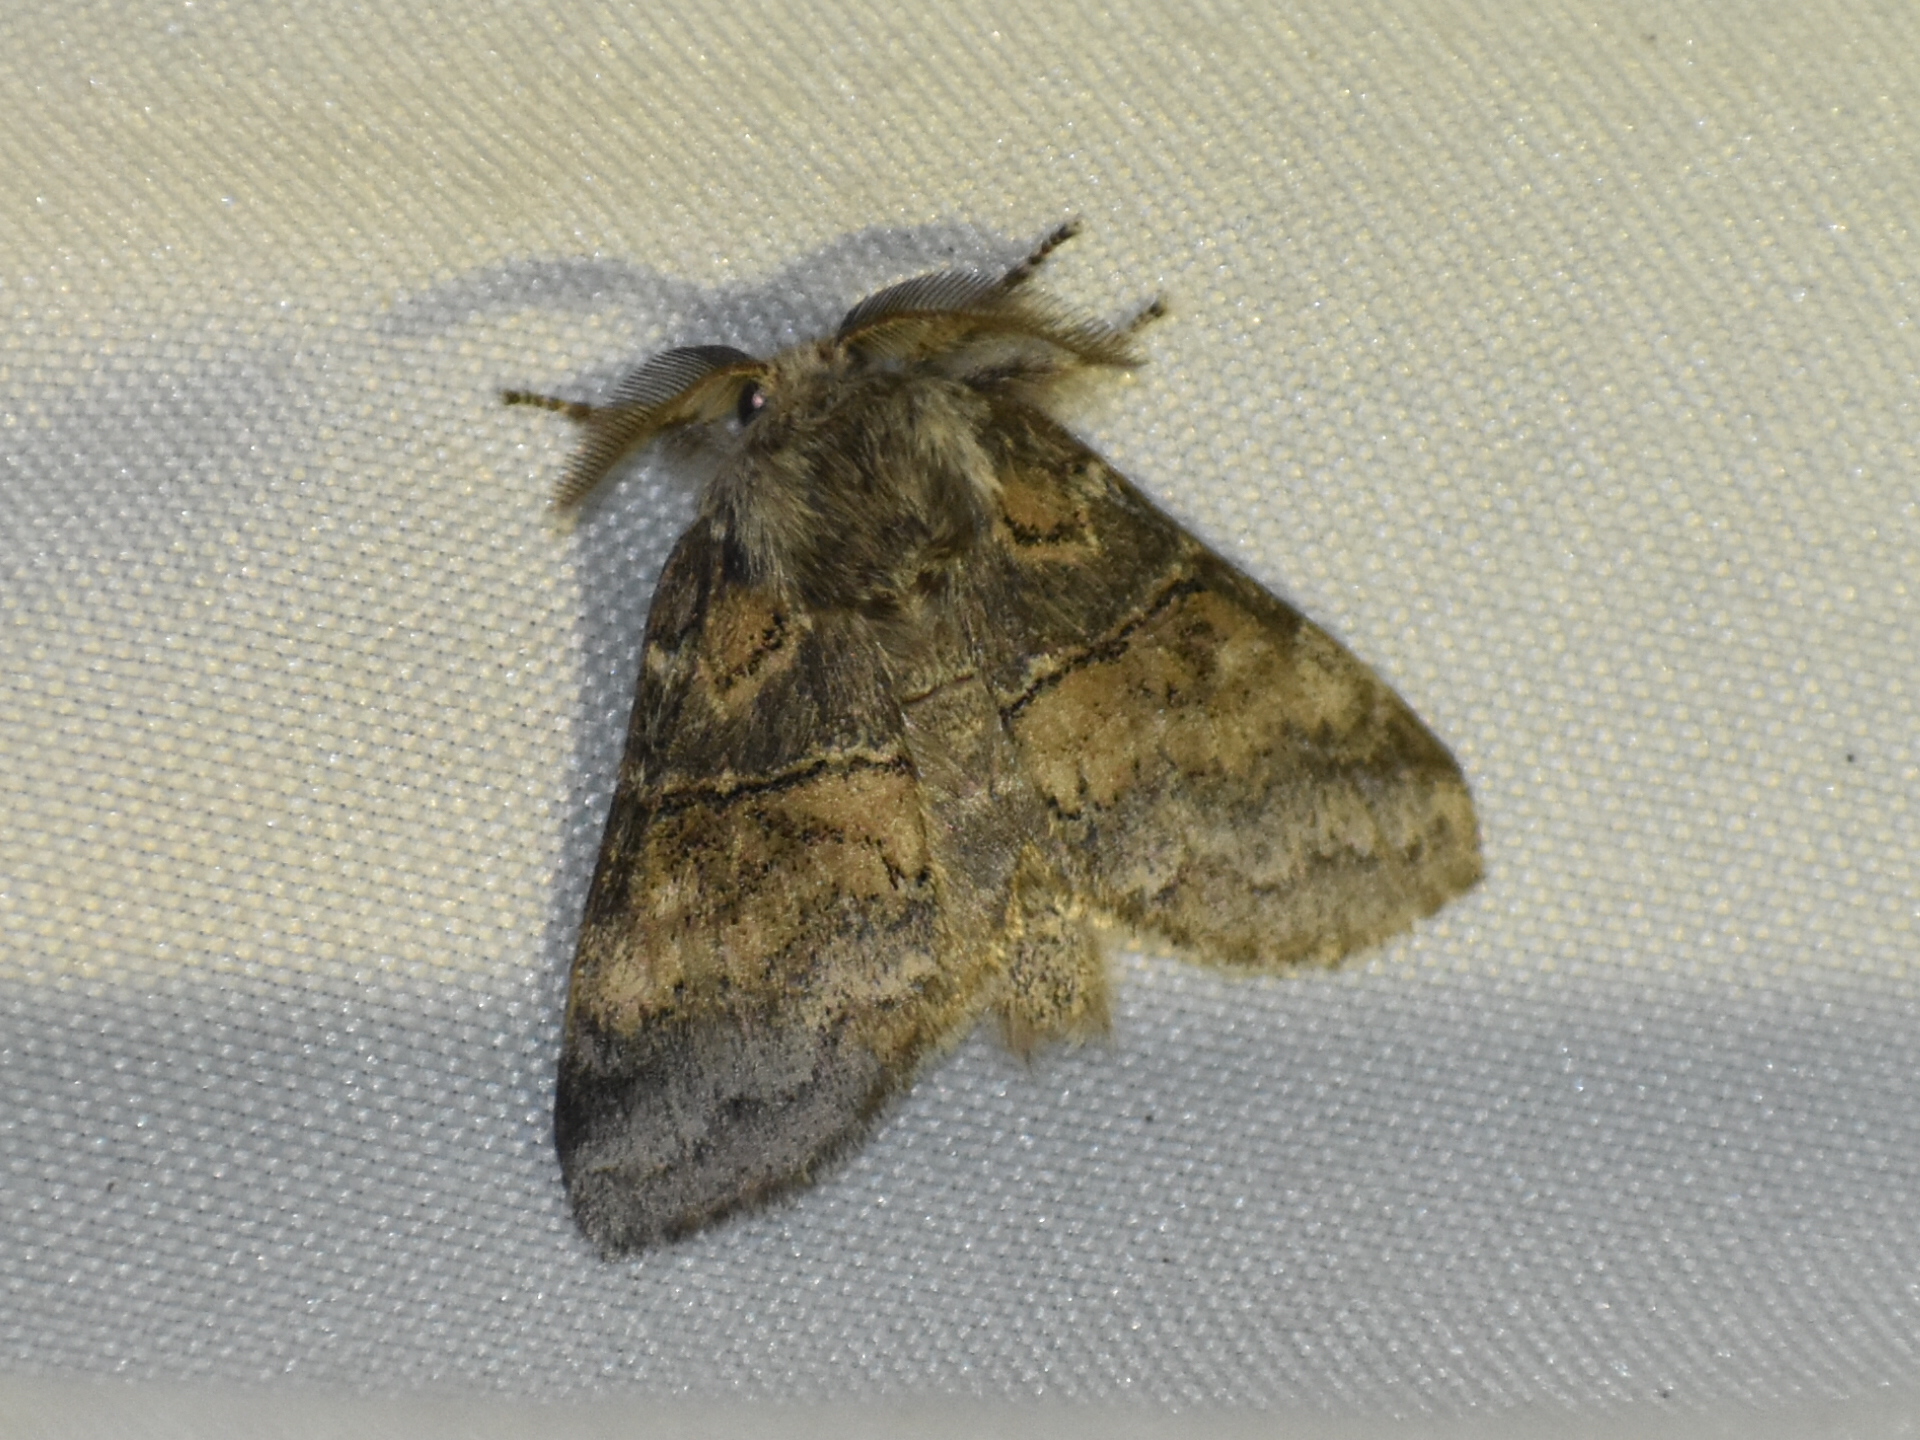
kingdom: Animalia
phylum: Arthropoda
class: Insecta
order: Lepidoptera
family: Notodontidae
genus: Gluphisia
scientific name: Gluphisia septentrionis
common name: Common gluphisia
